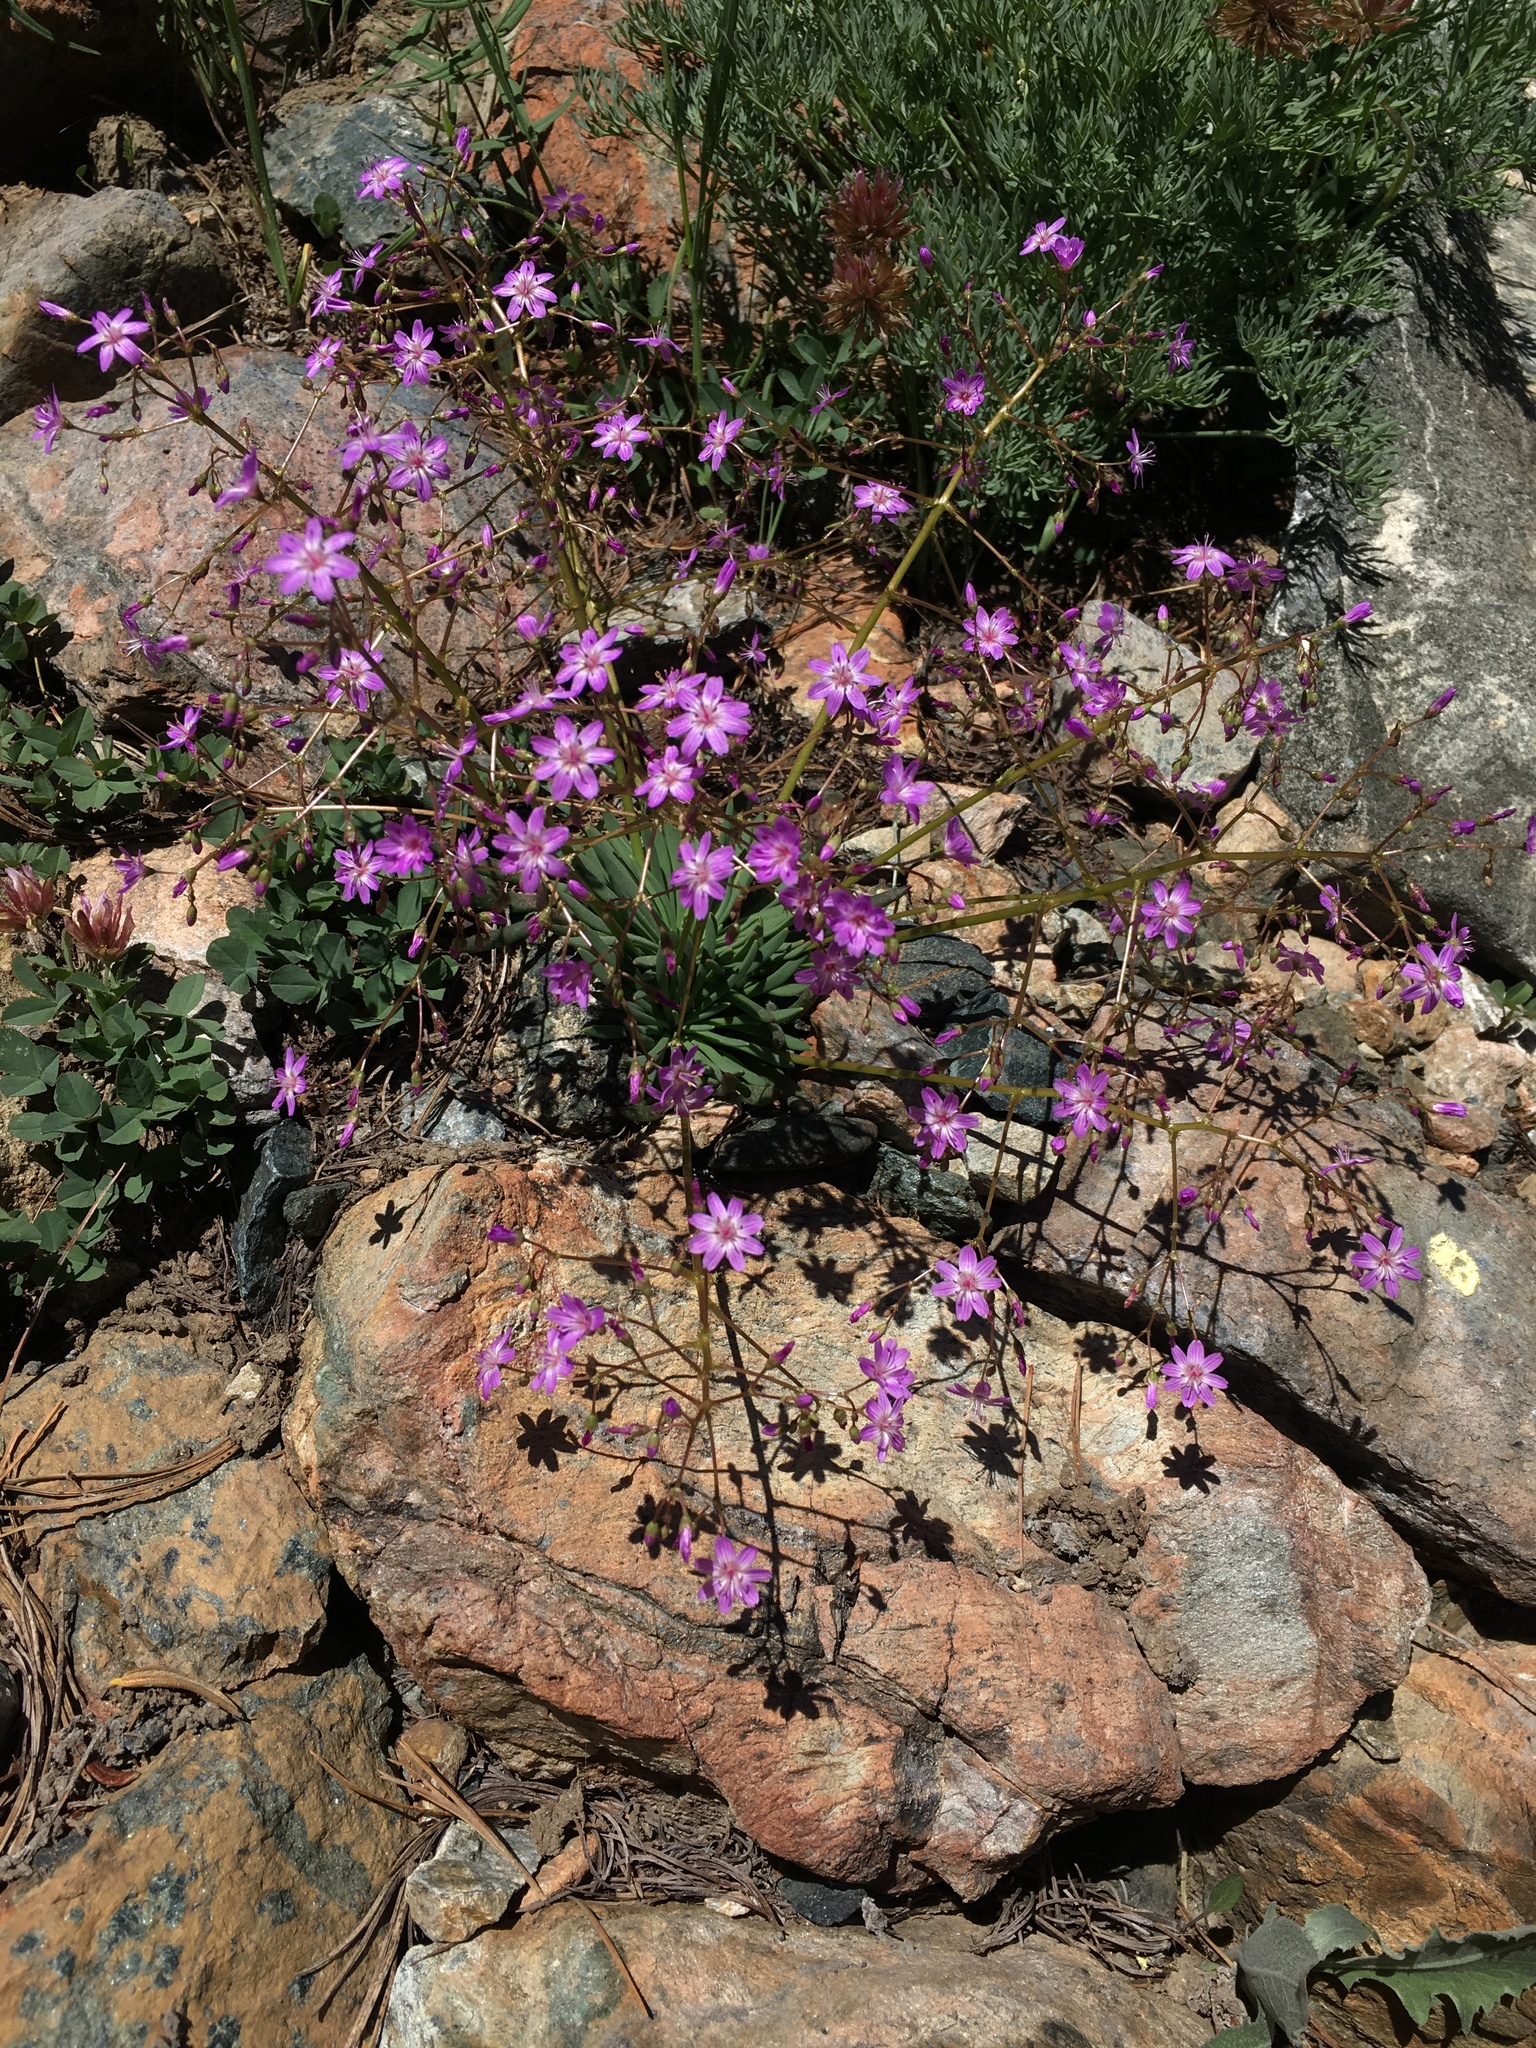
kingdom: Plantae
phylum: Tracheophyta
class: Magnoliopsida
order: Caryophyllales
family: Montiaceae
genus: Lewisia
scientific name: Lewisia leeana
